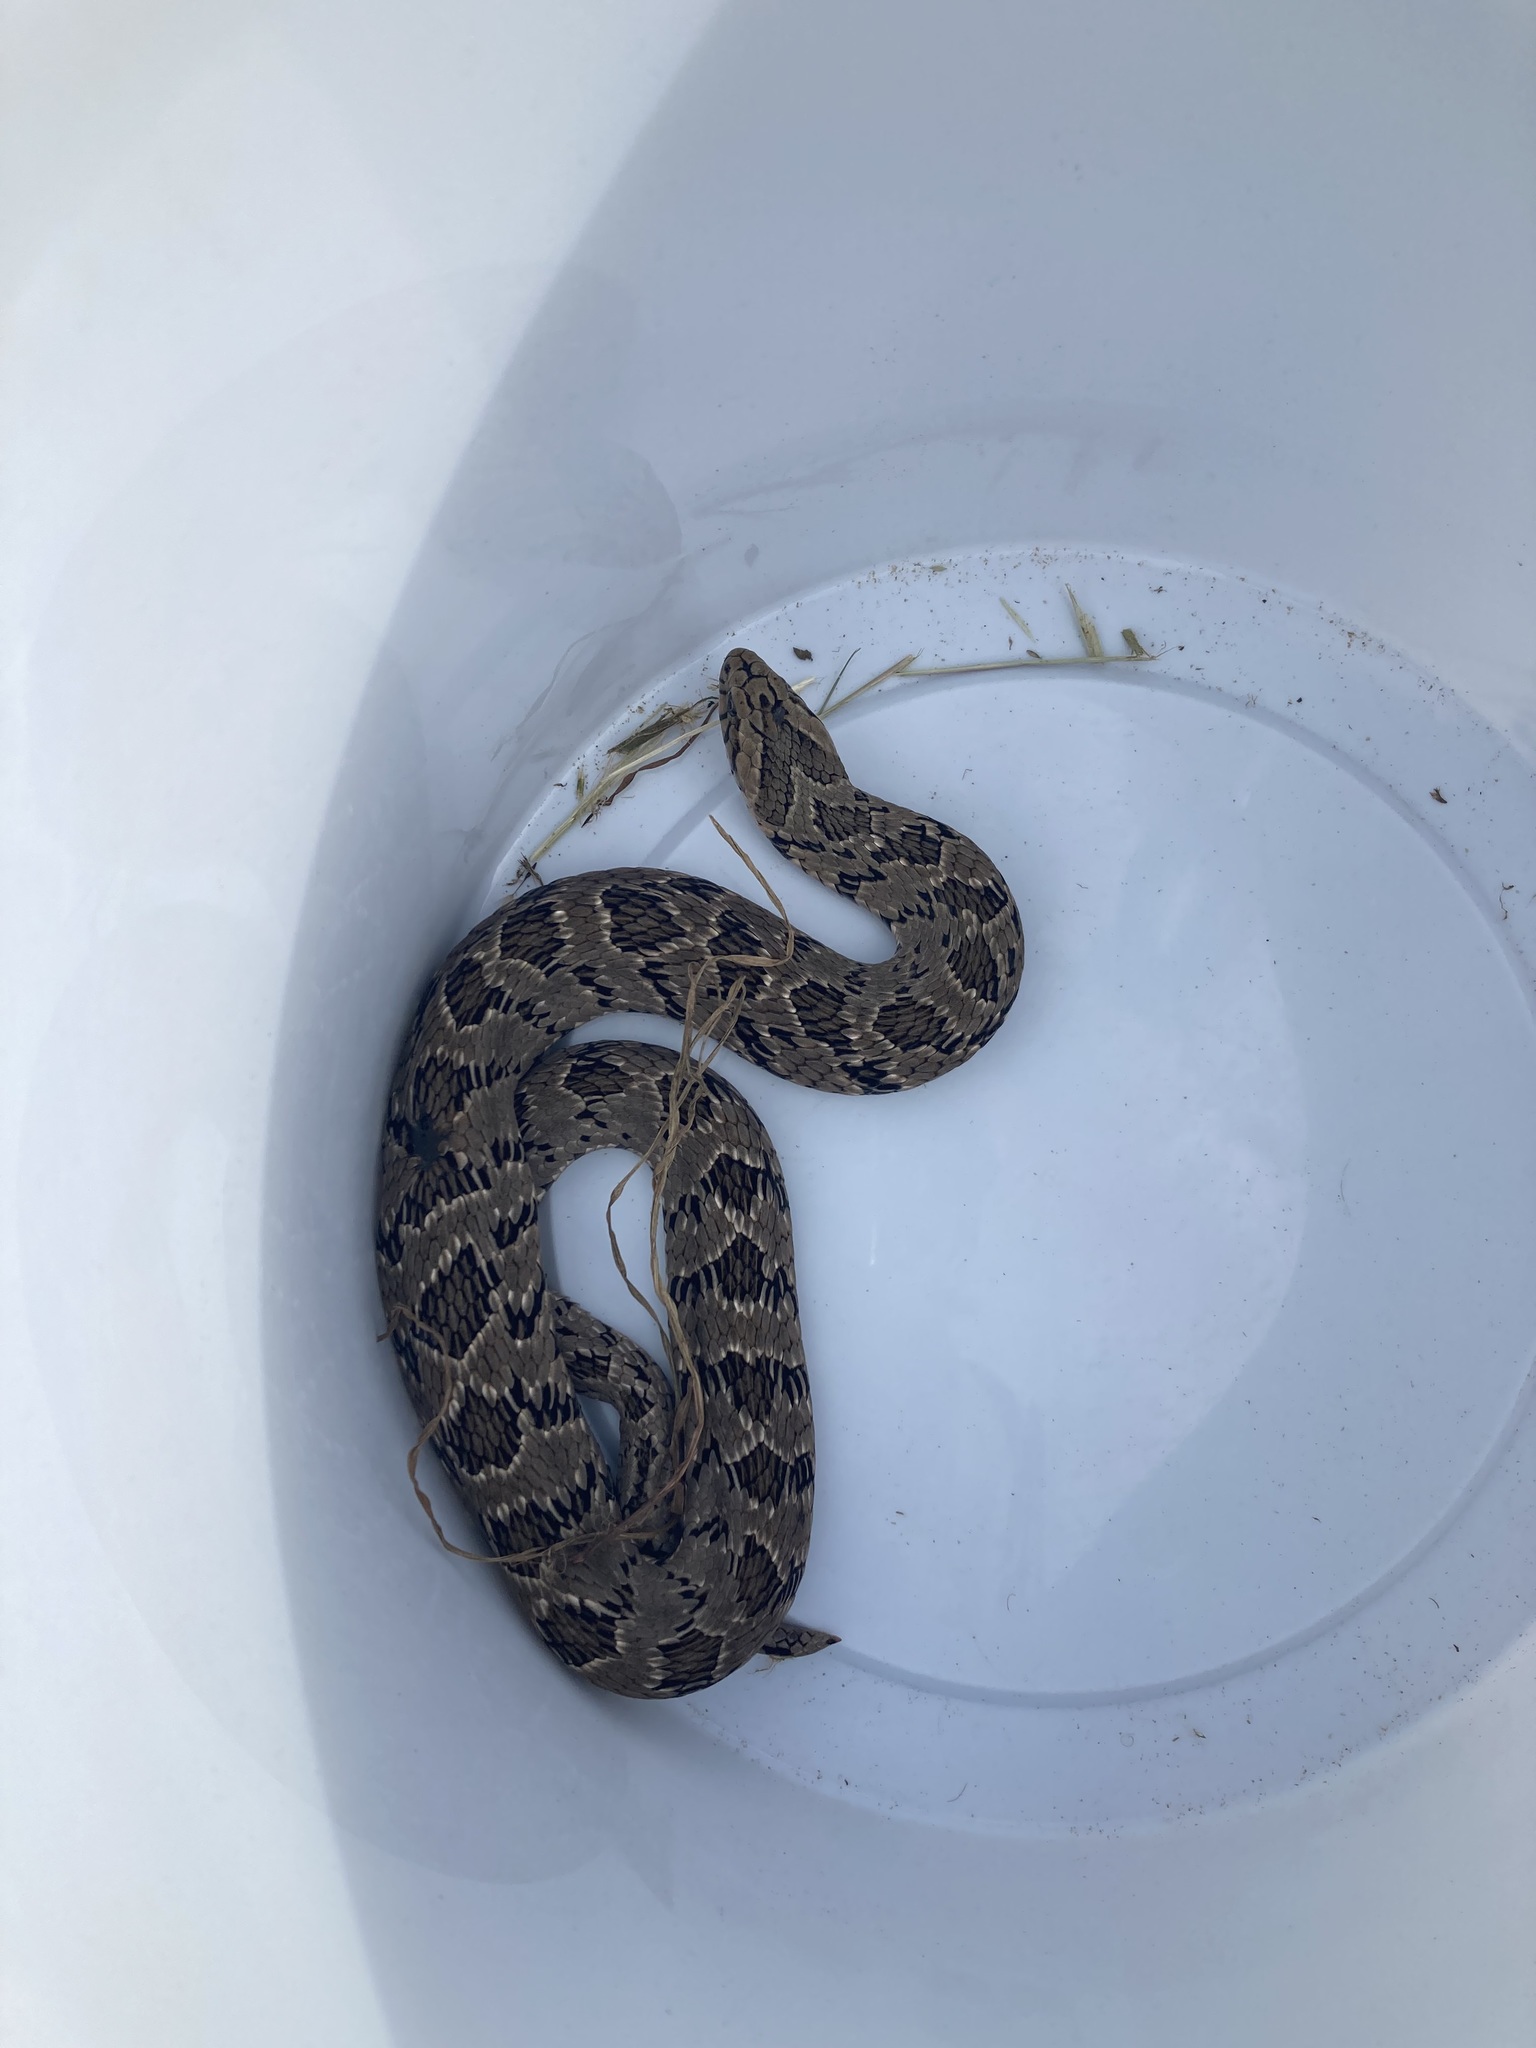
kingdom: Animalia
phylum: Chordata
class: Squamata
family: Viperidae
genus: Causus
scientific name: Causus rhombeatus
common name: Common night adder
